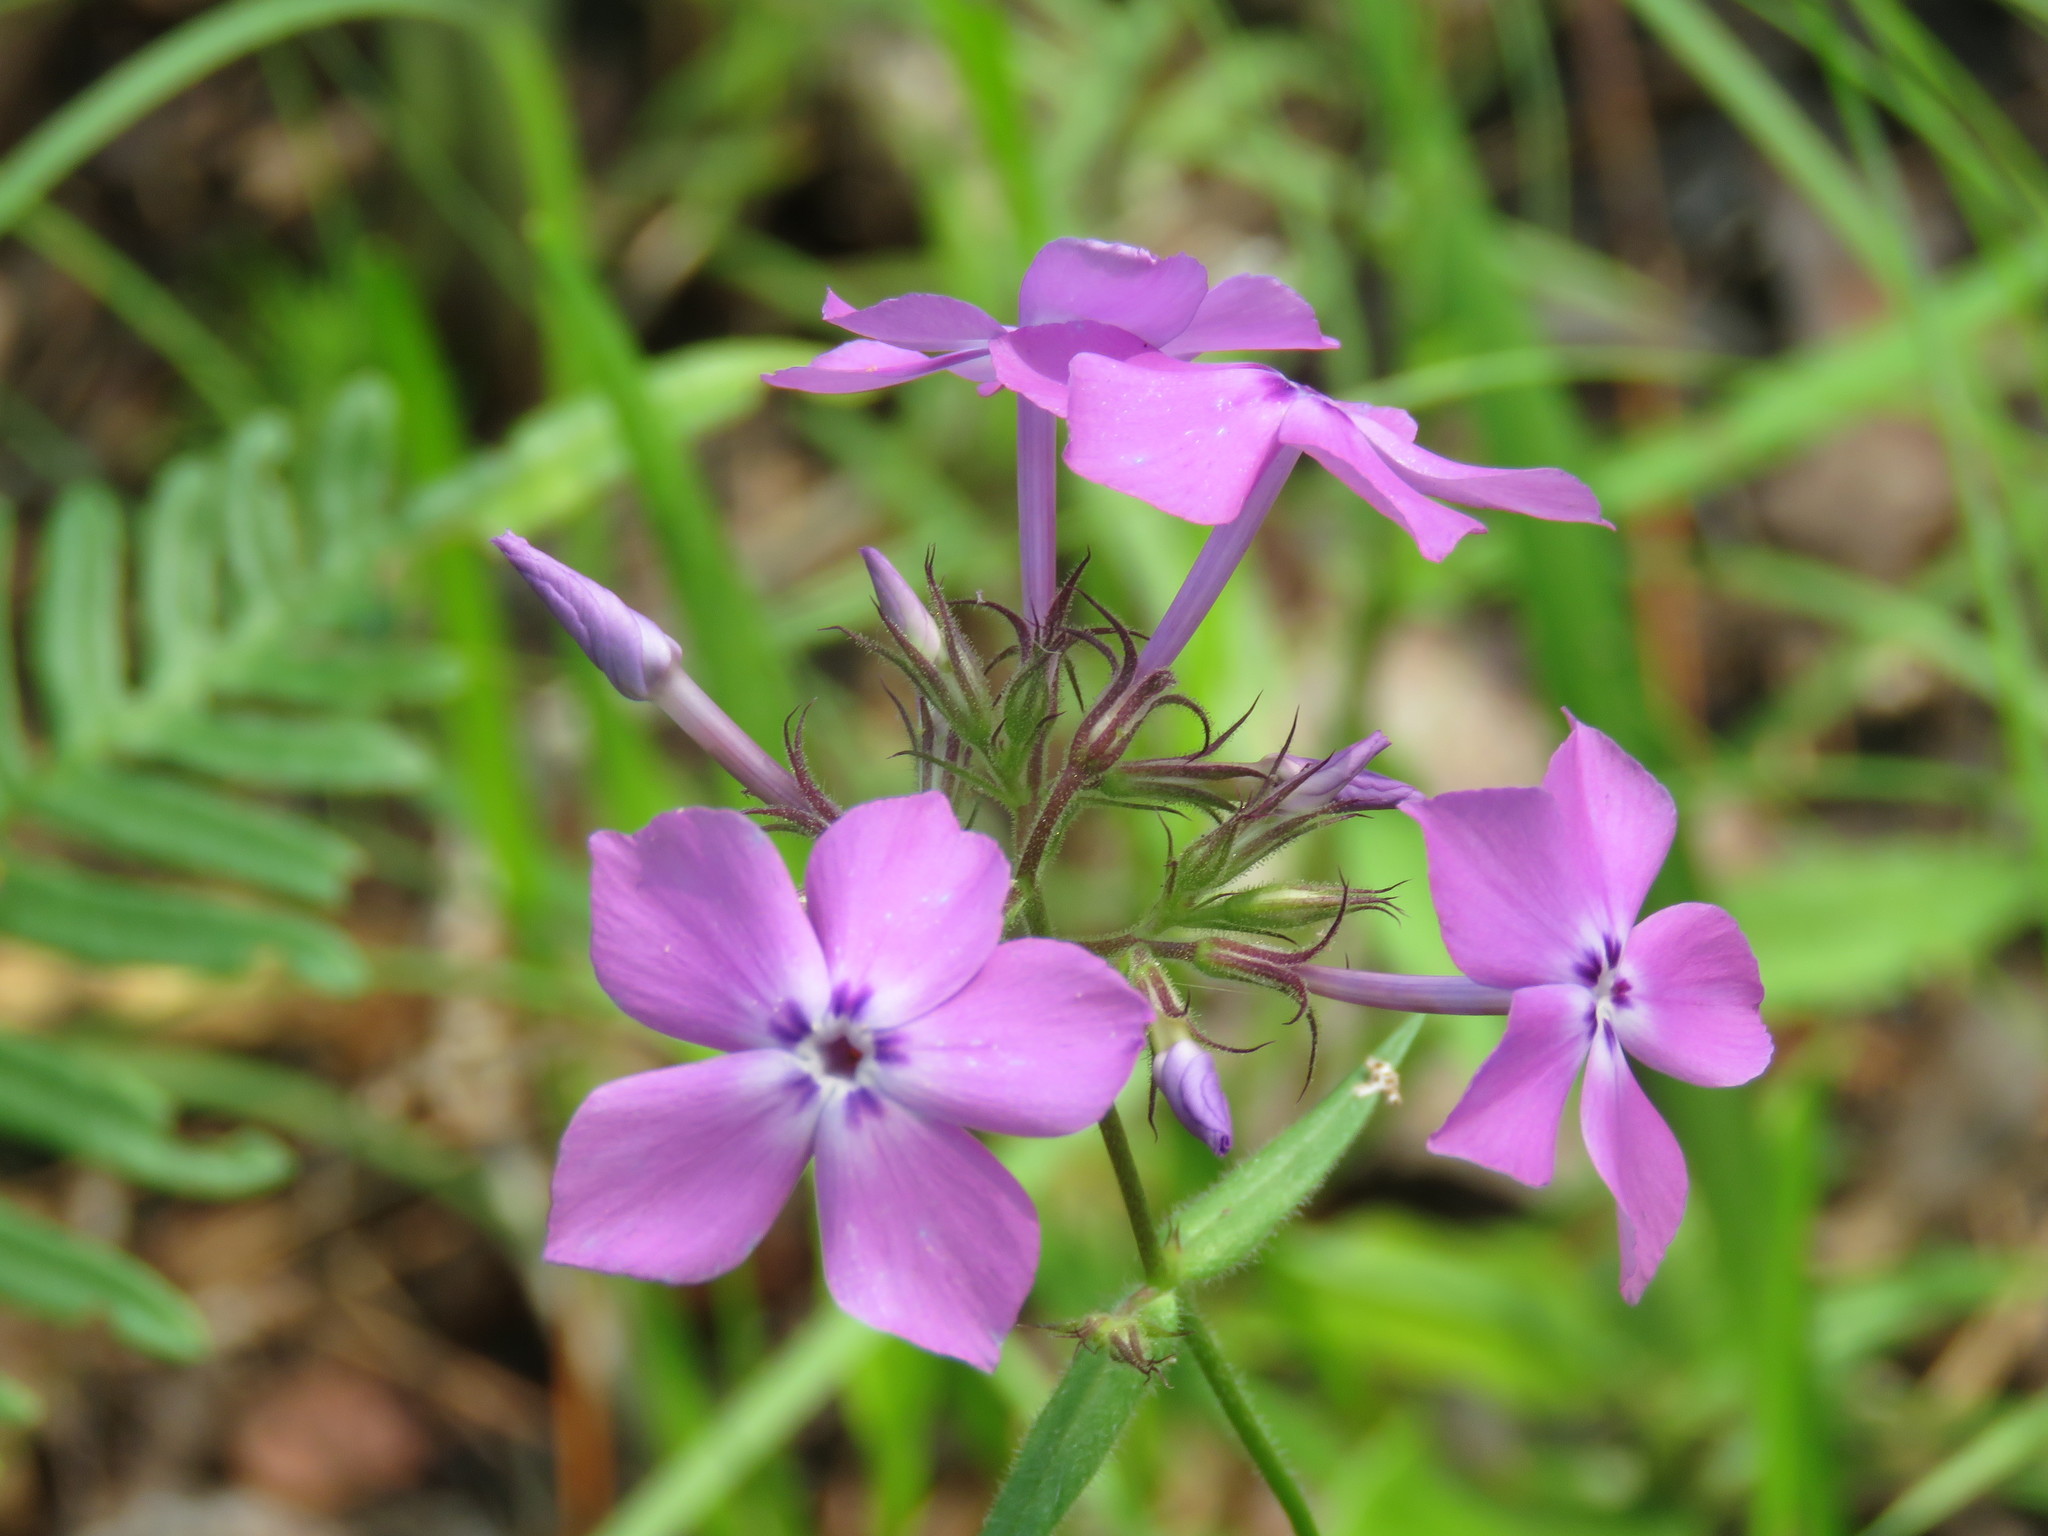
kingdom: Plantae
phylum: Tracheophyta
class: Magnoliopsida
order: Ericales
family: Polemoniaceae
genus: Phlox
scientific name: Phlox pilosa
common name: Prairie phlox
